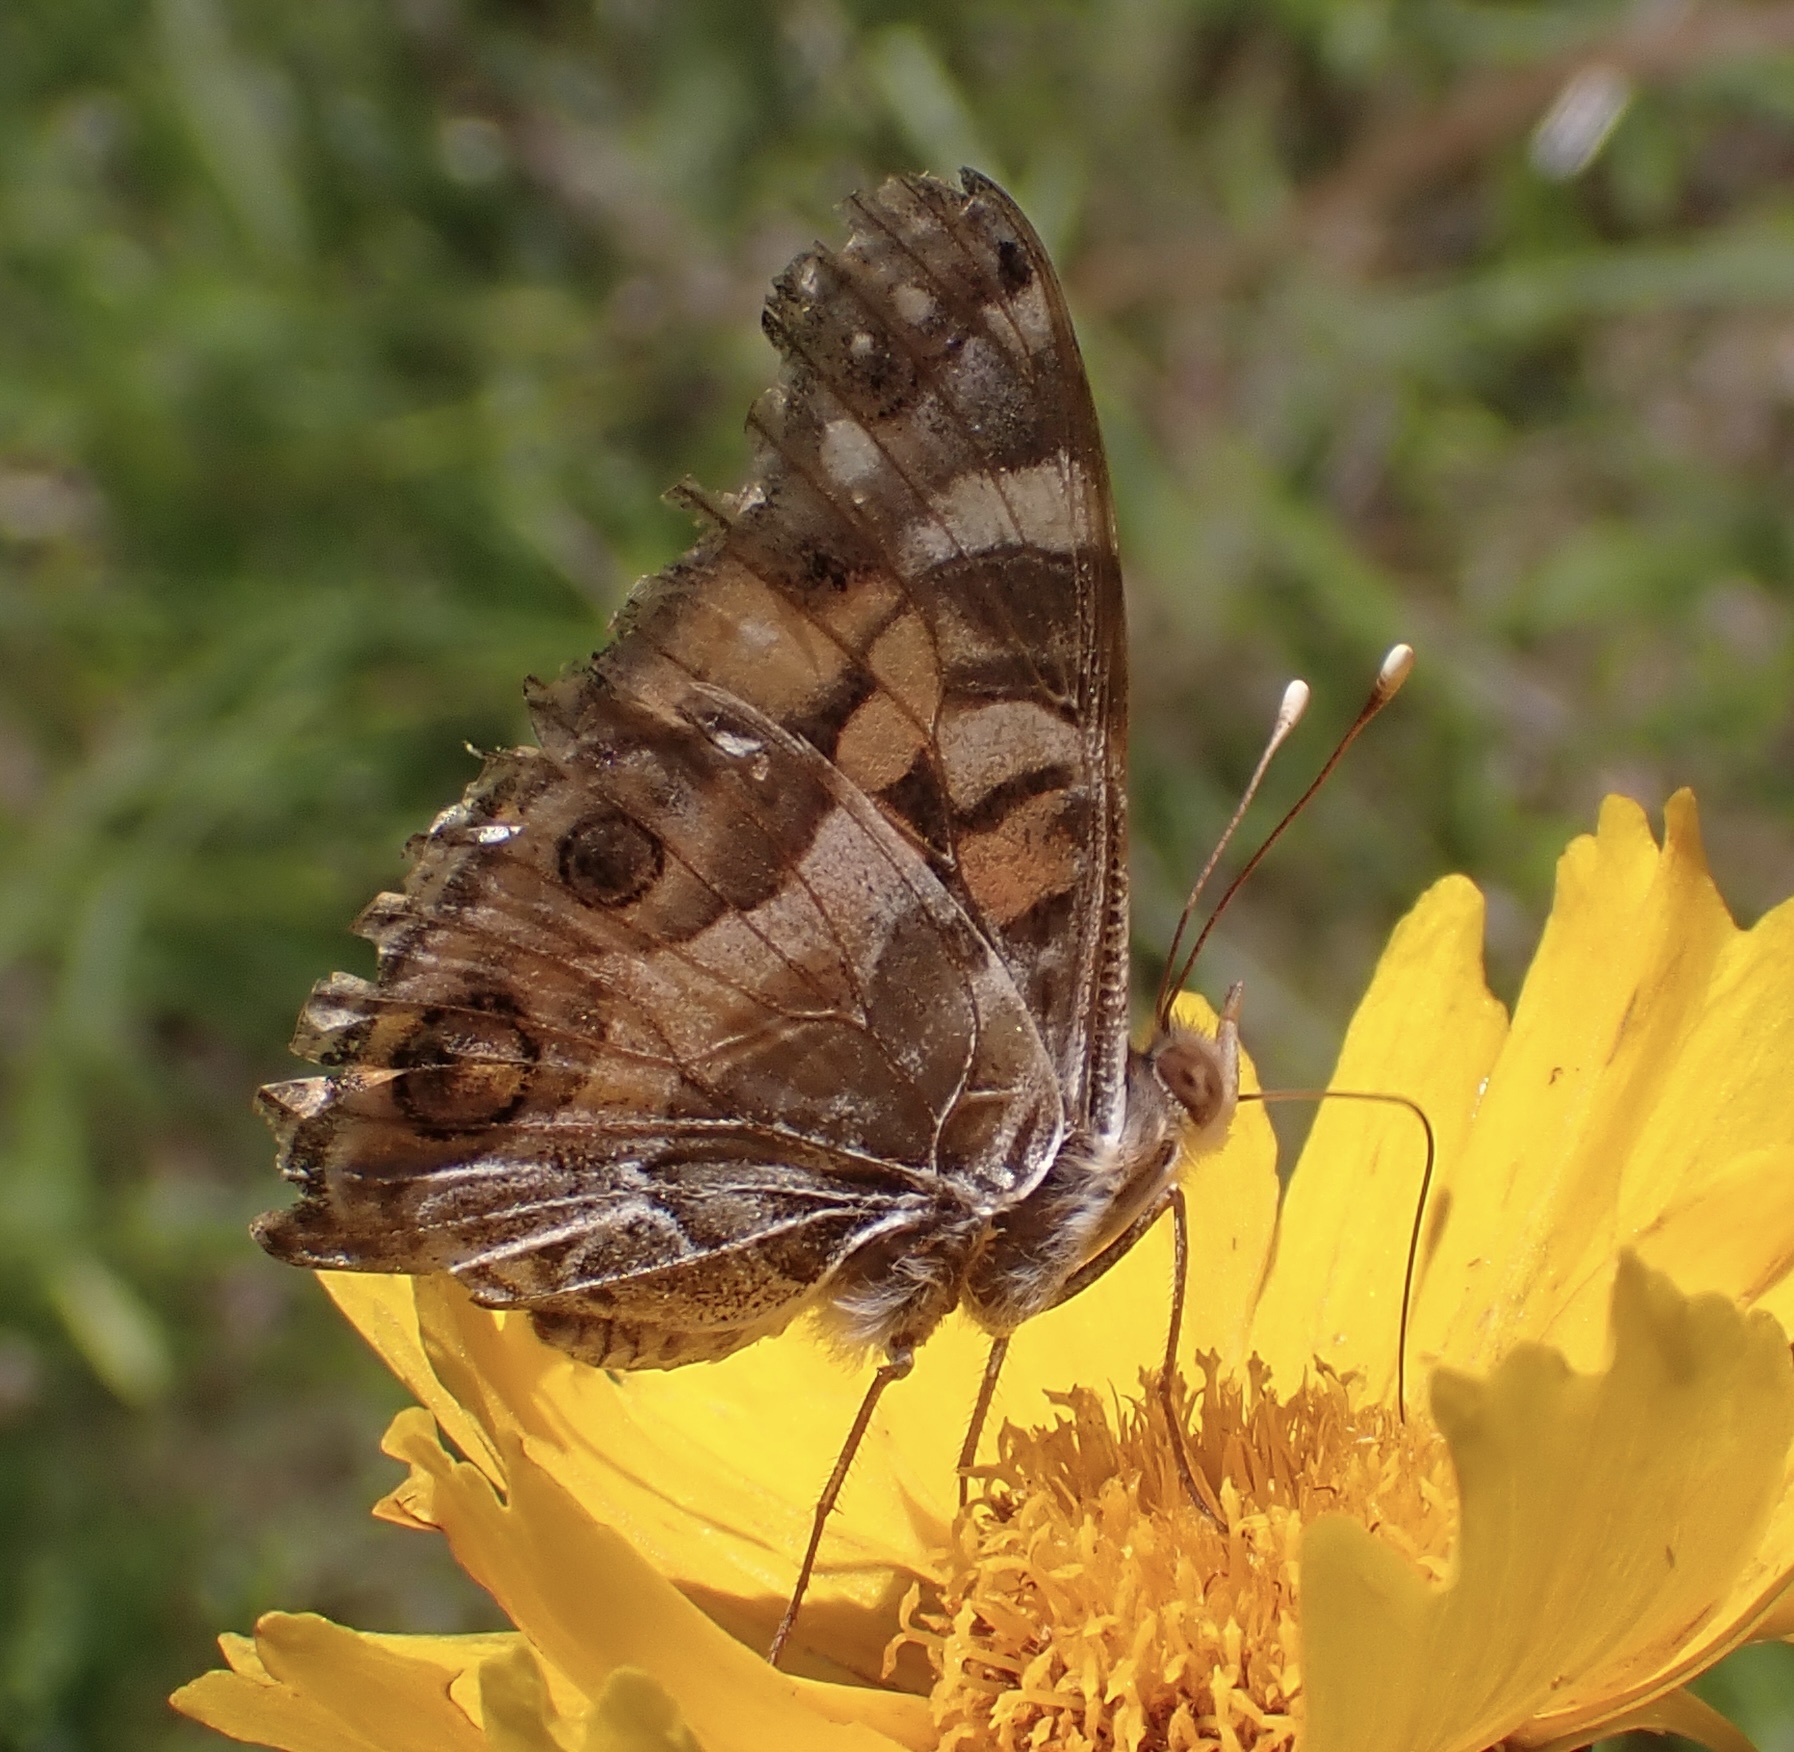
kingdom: Animalia
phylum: Arthropoda
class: Insecta
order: Lepidoptera
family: Nymphalidae
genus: Vanessa
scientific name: Vanessa virginiensis
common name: American lady
